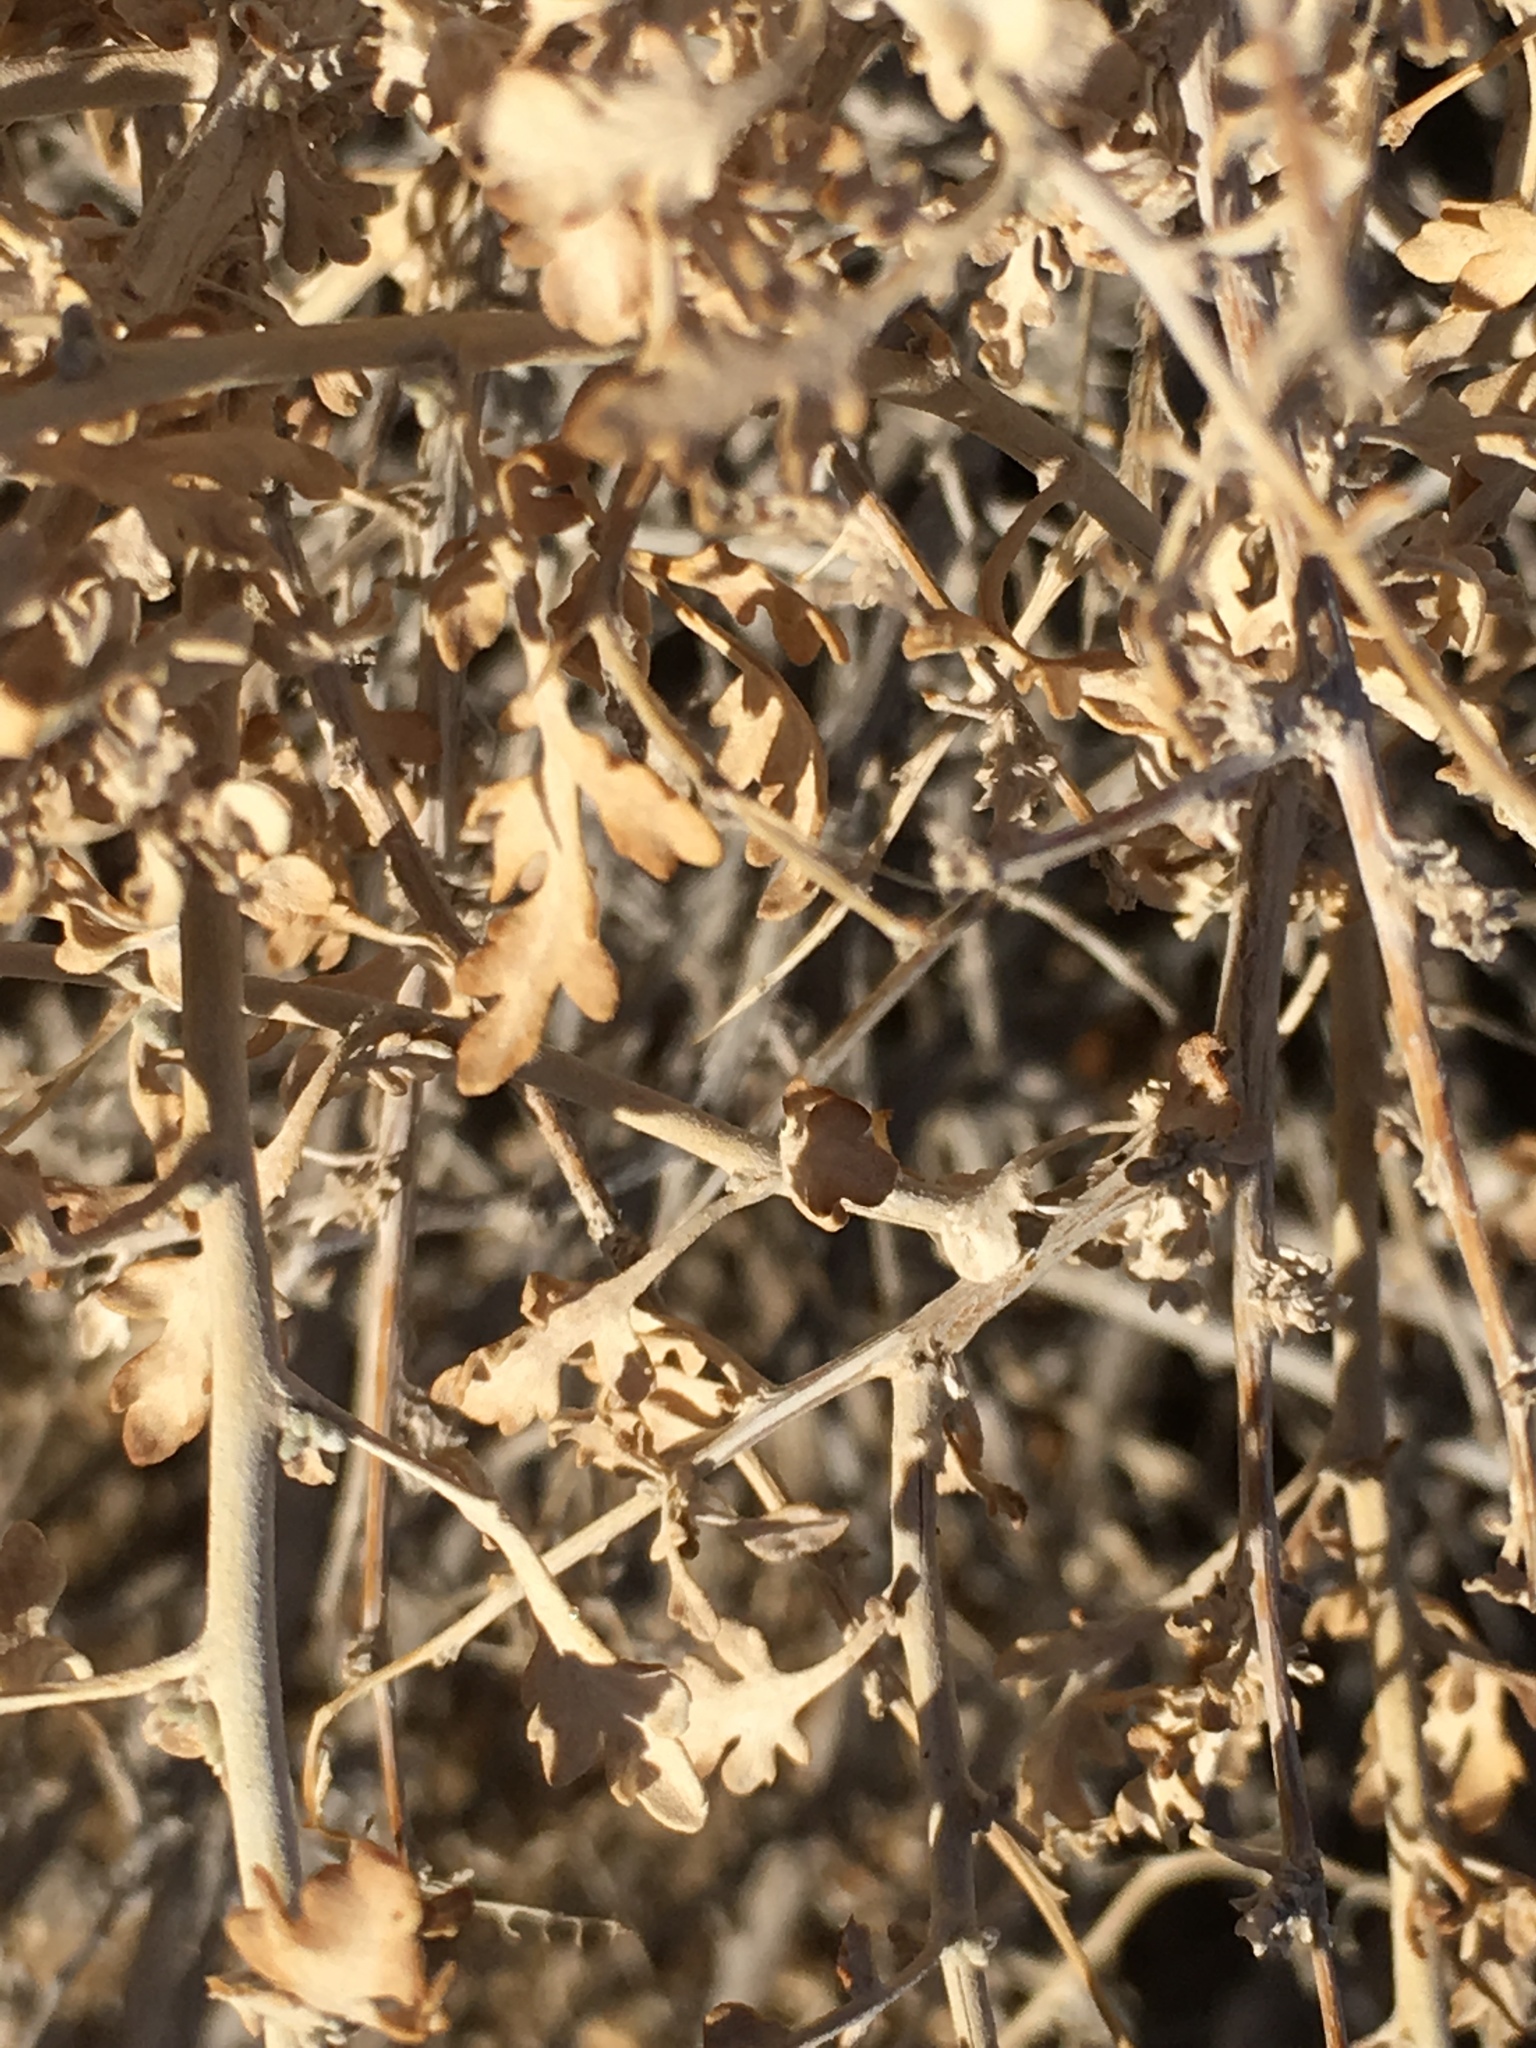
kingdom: Plantae
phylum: Tracheophyta
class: Magnoliopsida
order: Asterales
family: Asteraceae
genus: Ambrosia
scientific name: Ambrosia dumosa
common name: Bur-sage
